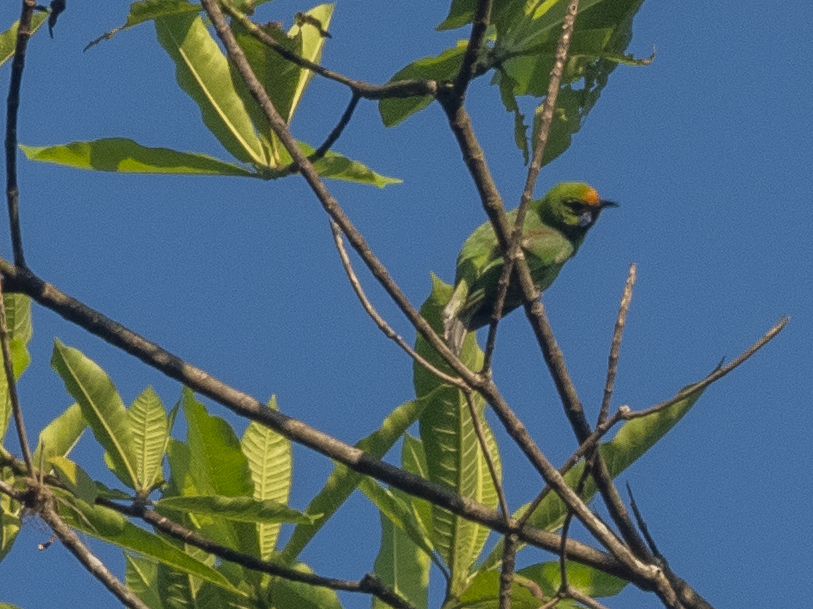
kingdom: Animalia
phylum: Chordata
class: Aves
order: Passeriformes
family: Chloropseidae
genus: Chloropsis
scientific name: Chloropsis aurifrons
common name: Golden-fronted leafbird
